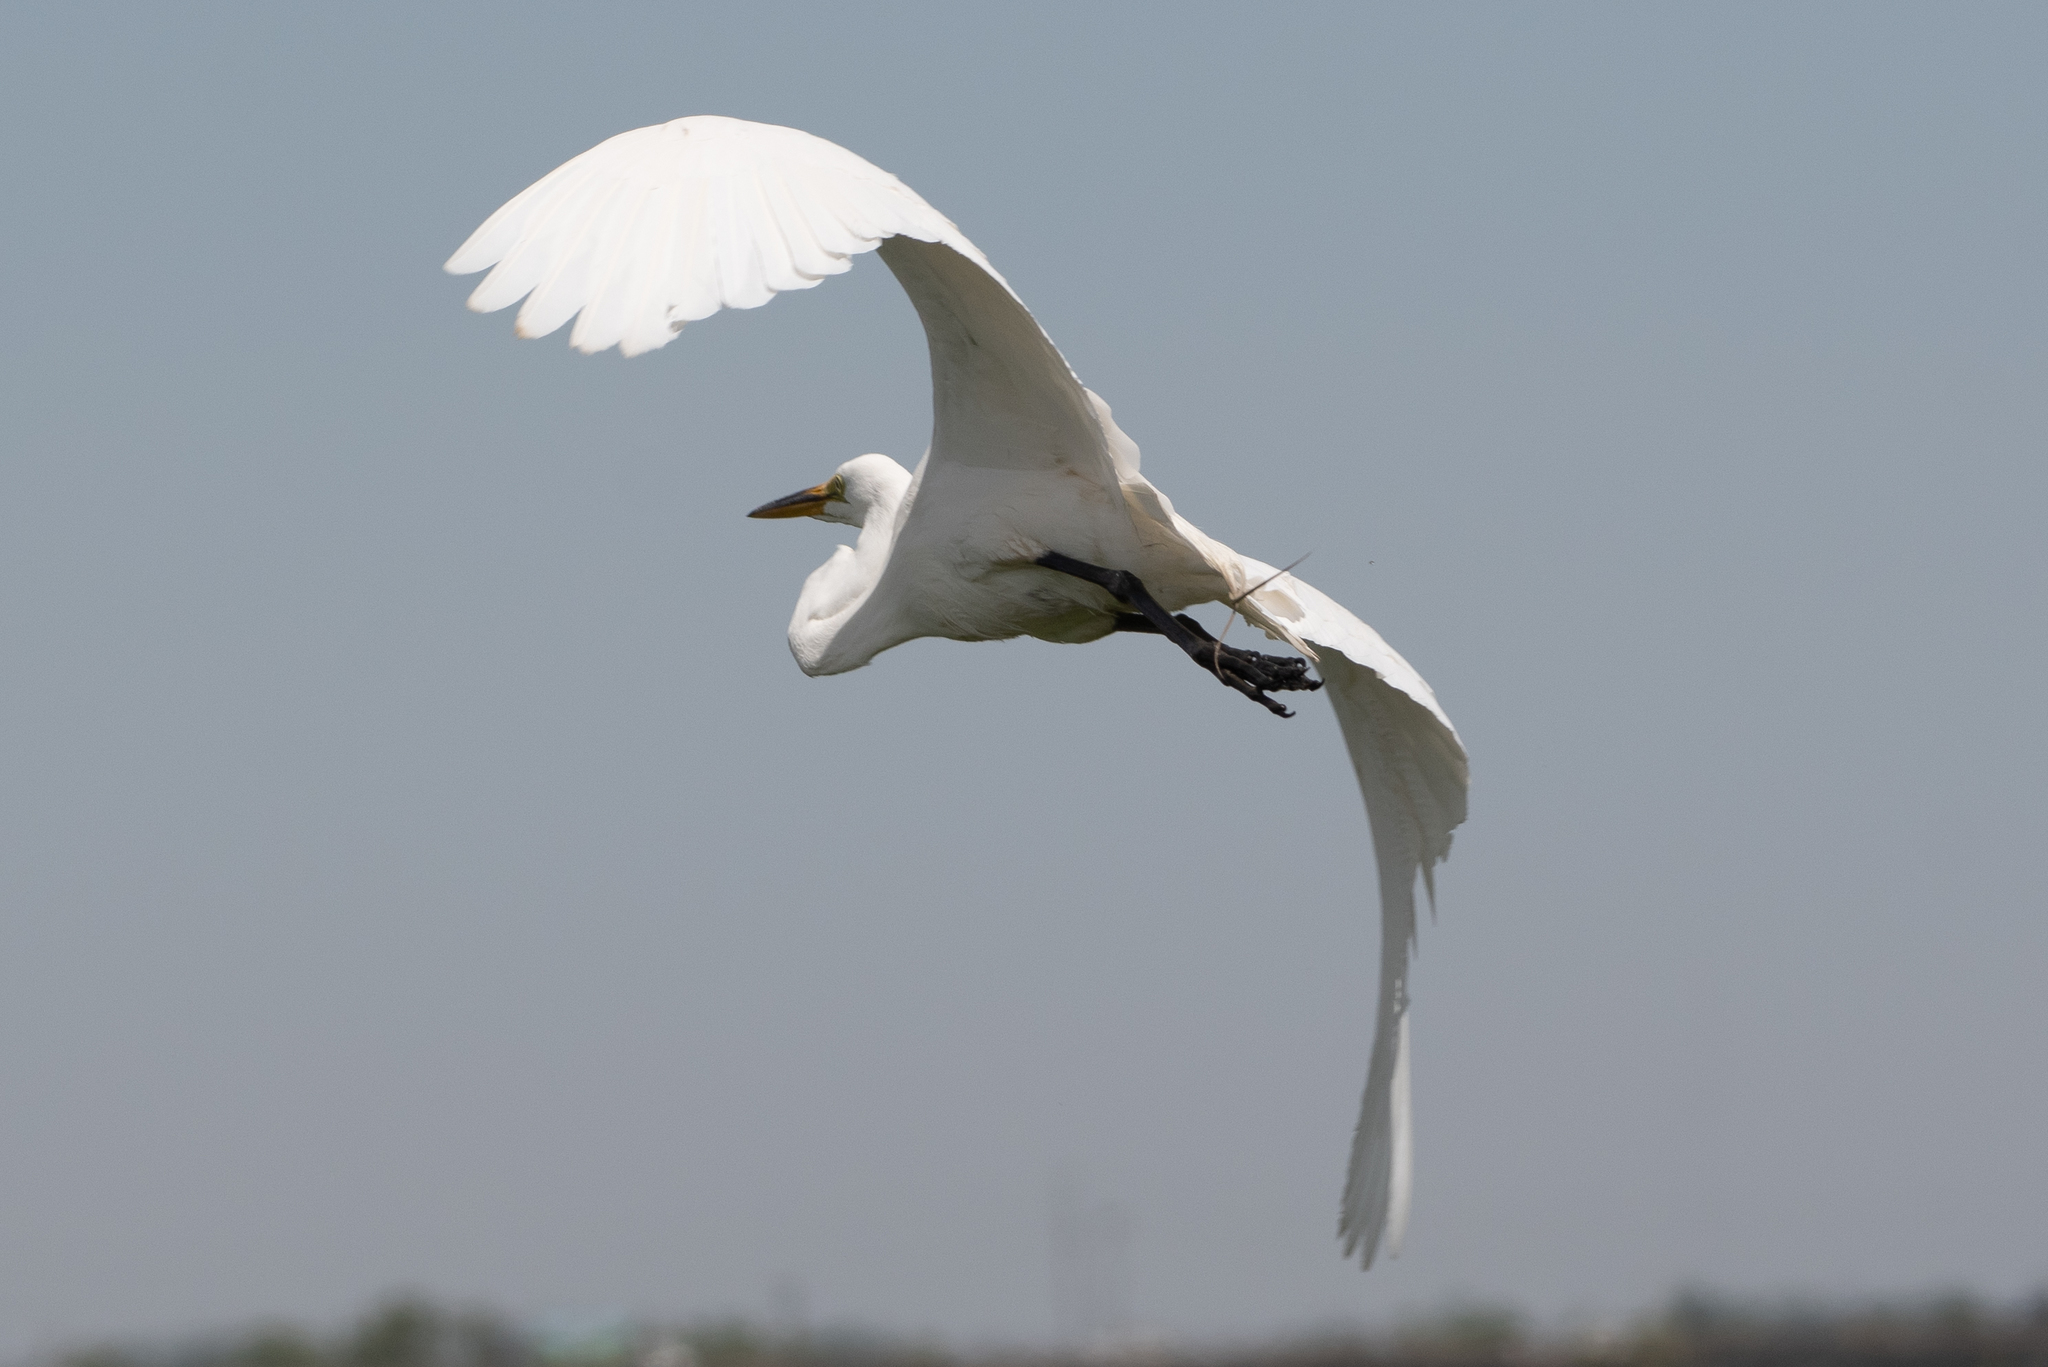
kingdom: Animalia
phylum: Chordata
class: Aves
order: Pelecaniformes
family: Ardeidae
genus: Ardea
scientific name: Ardea alba
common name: Great egret
